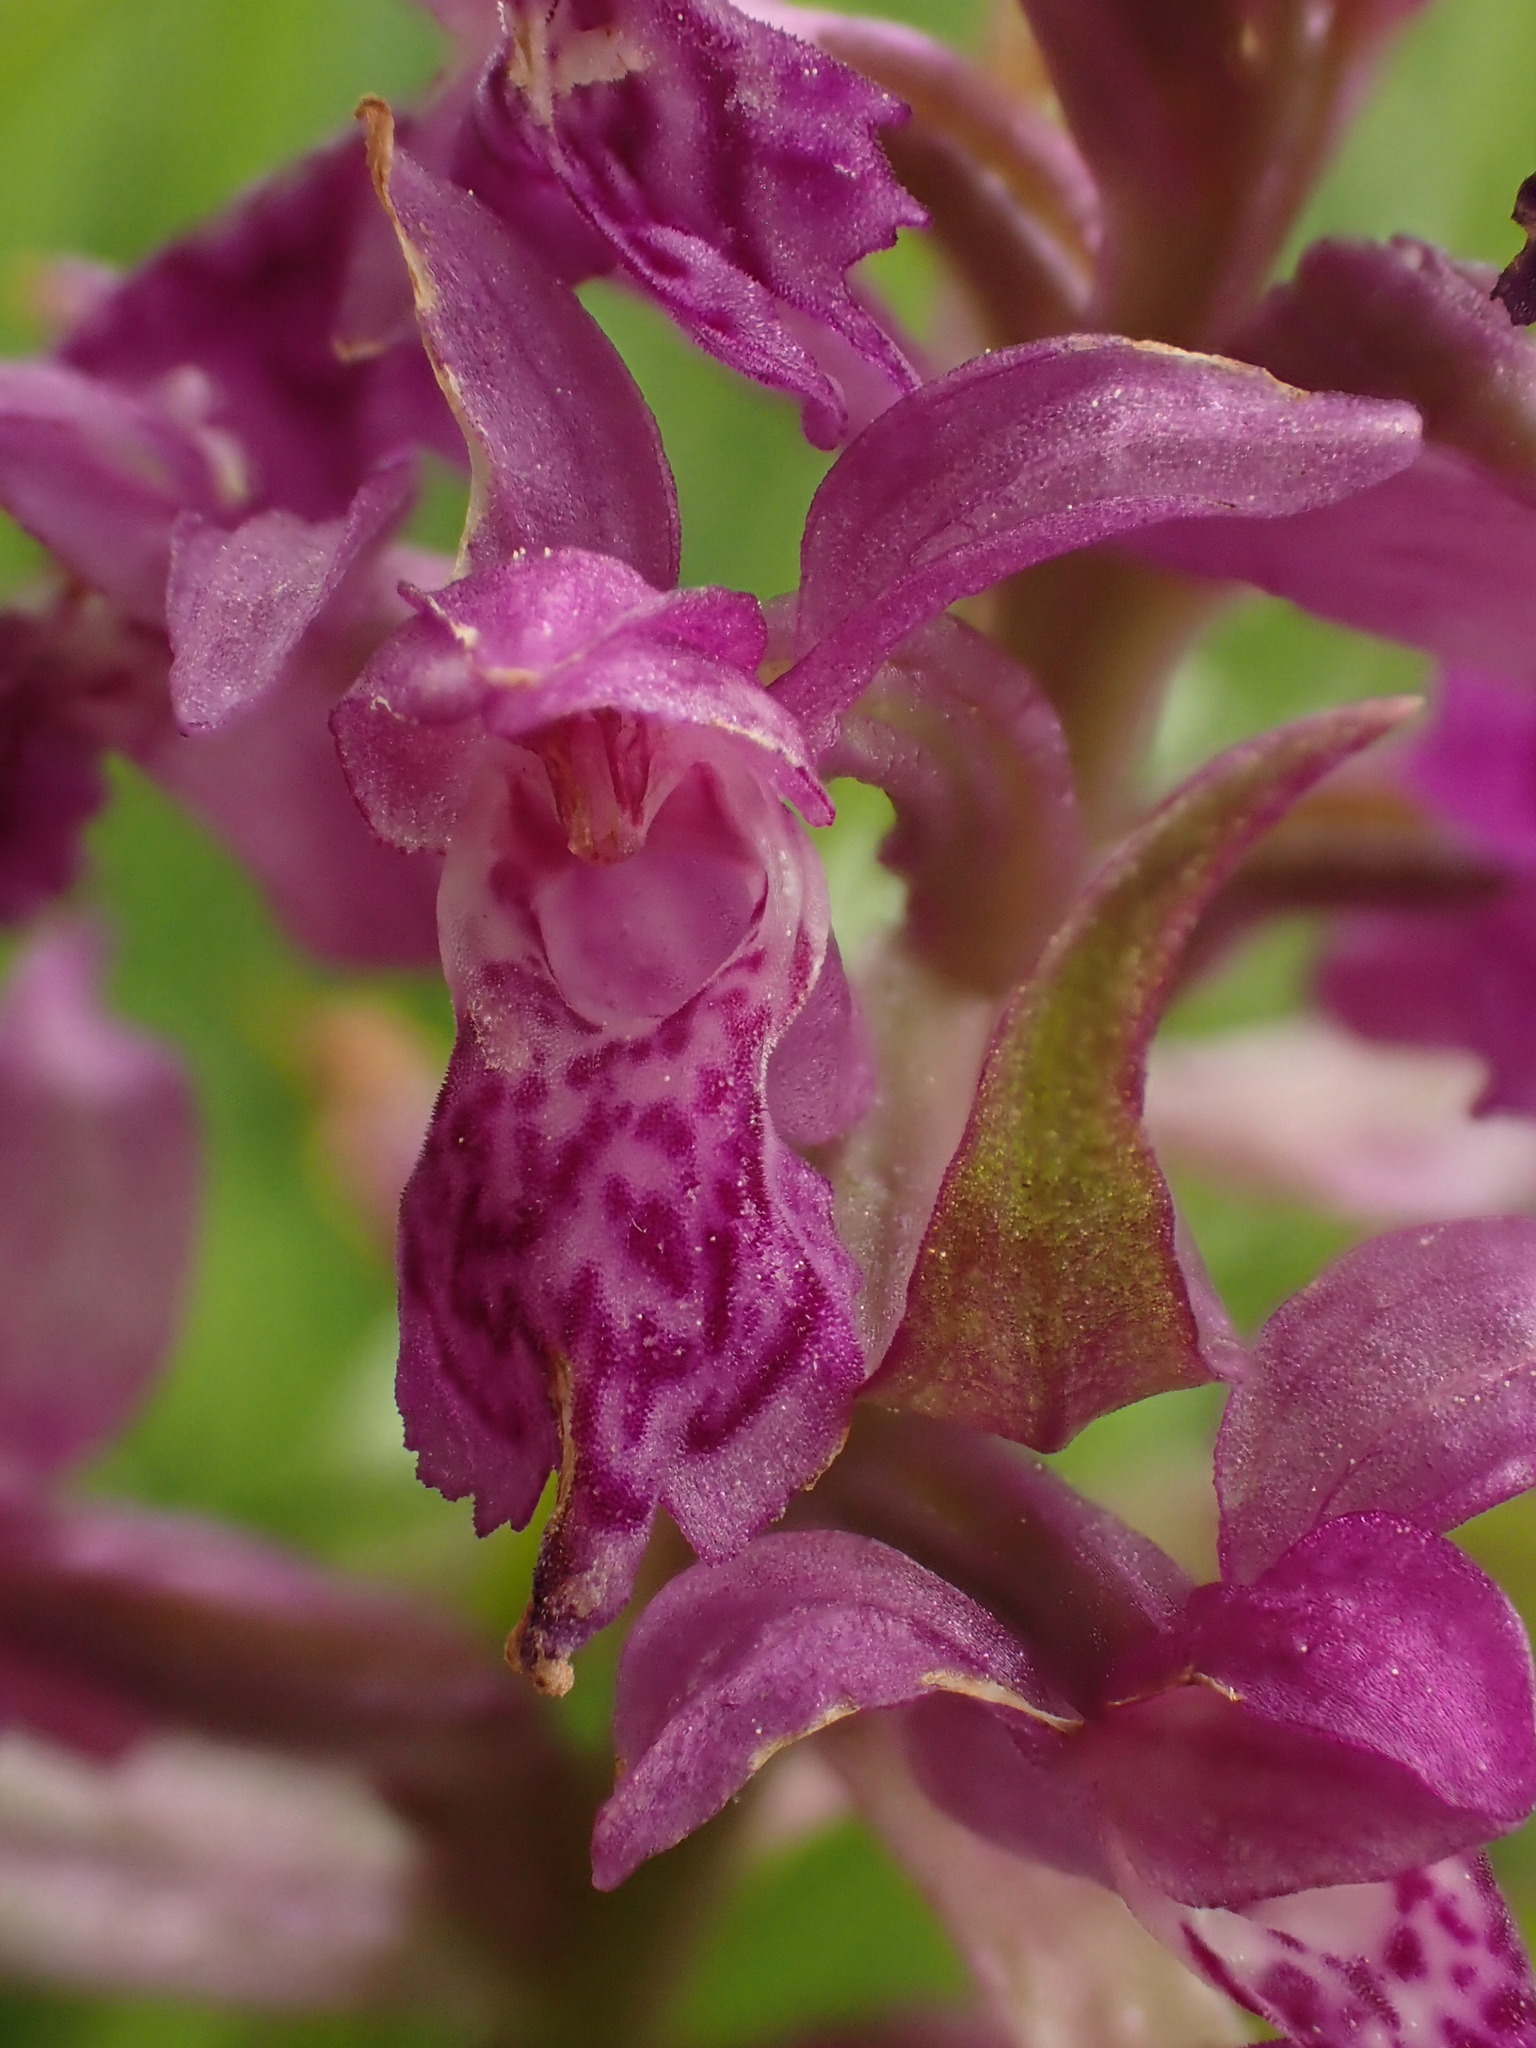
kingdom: Plantae
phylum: Tracheophyta
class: Liliopsida
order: Asparagales
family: Orchidaceae
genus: Dactylorhiza
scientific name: Dactylorhiza majalis
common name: Marsh orchid
